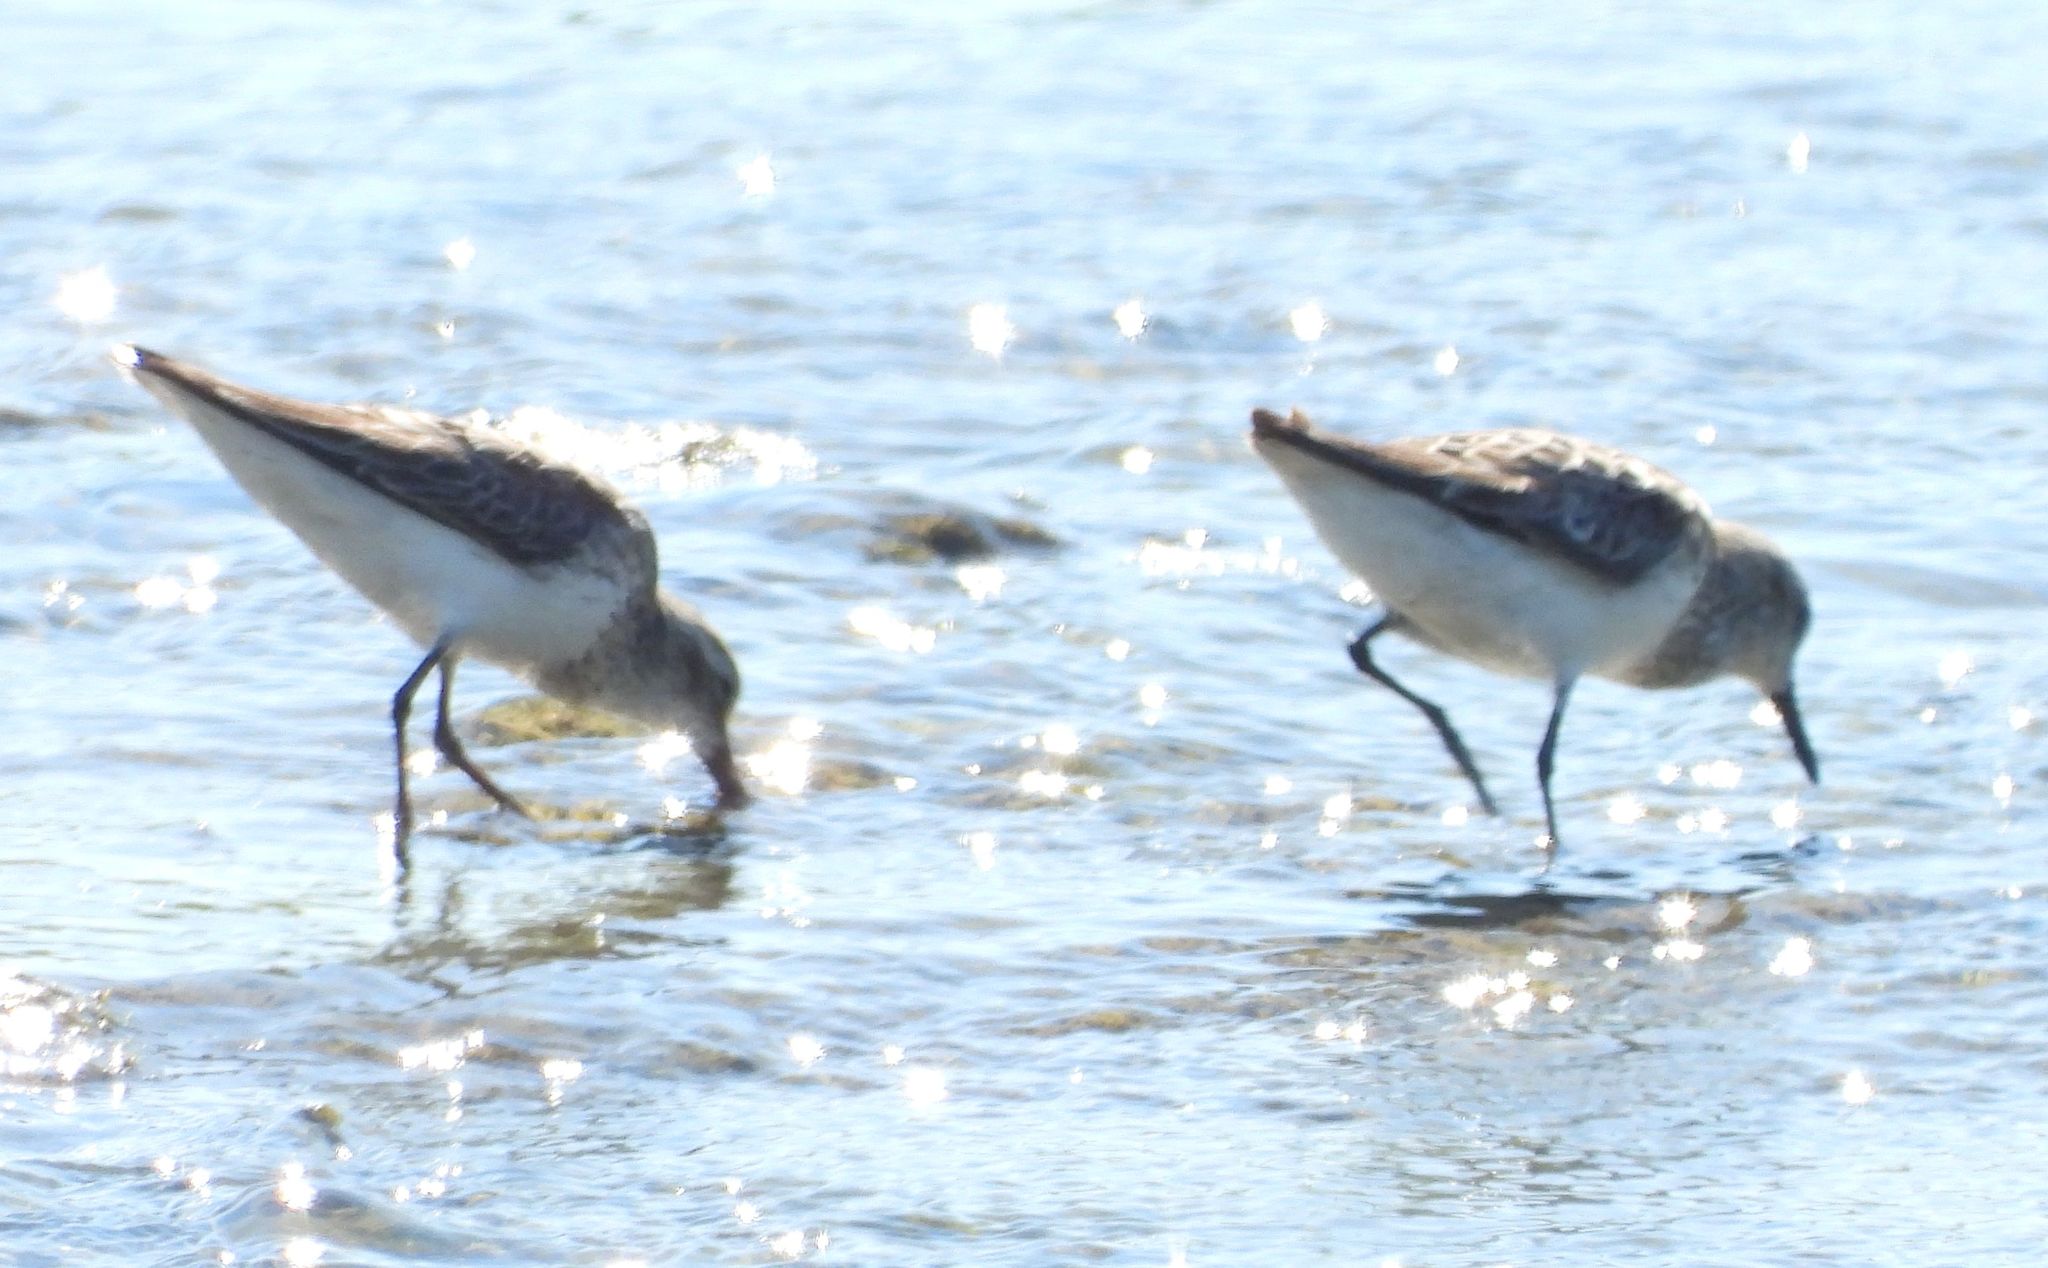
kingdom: Animalia
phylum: Chordata
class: Aves
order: Charadriiformes
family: Scolopacidae
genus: Calidris
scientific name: Calidris minutilla
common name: Least sandpiper
